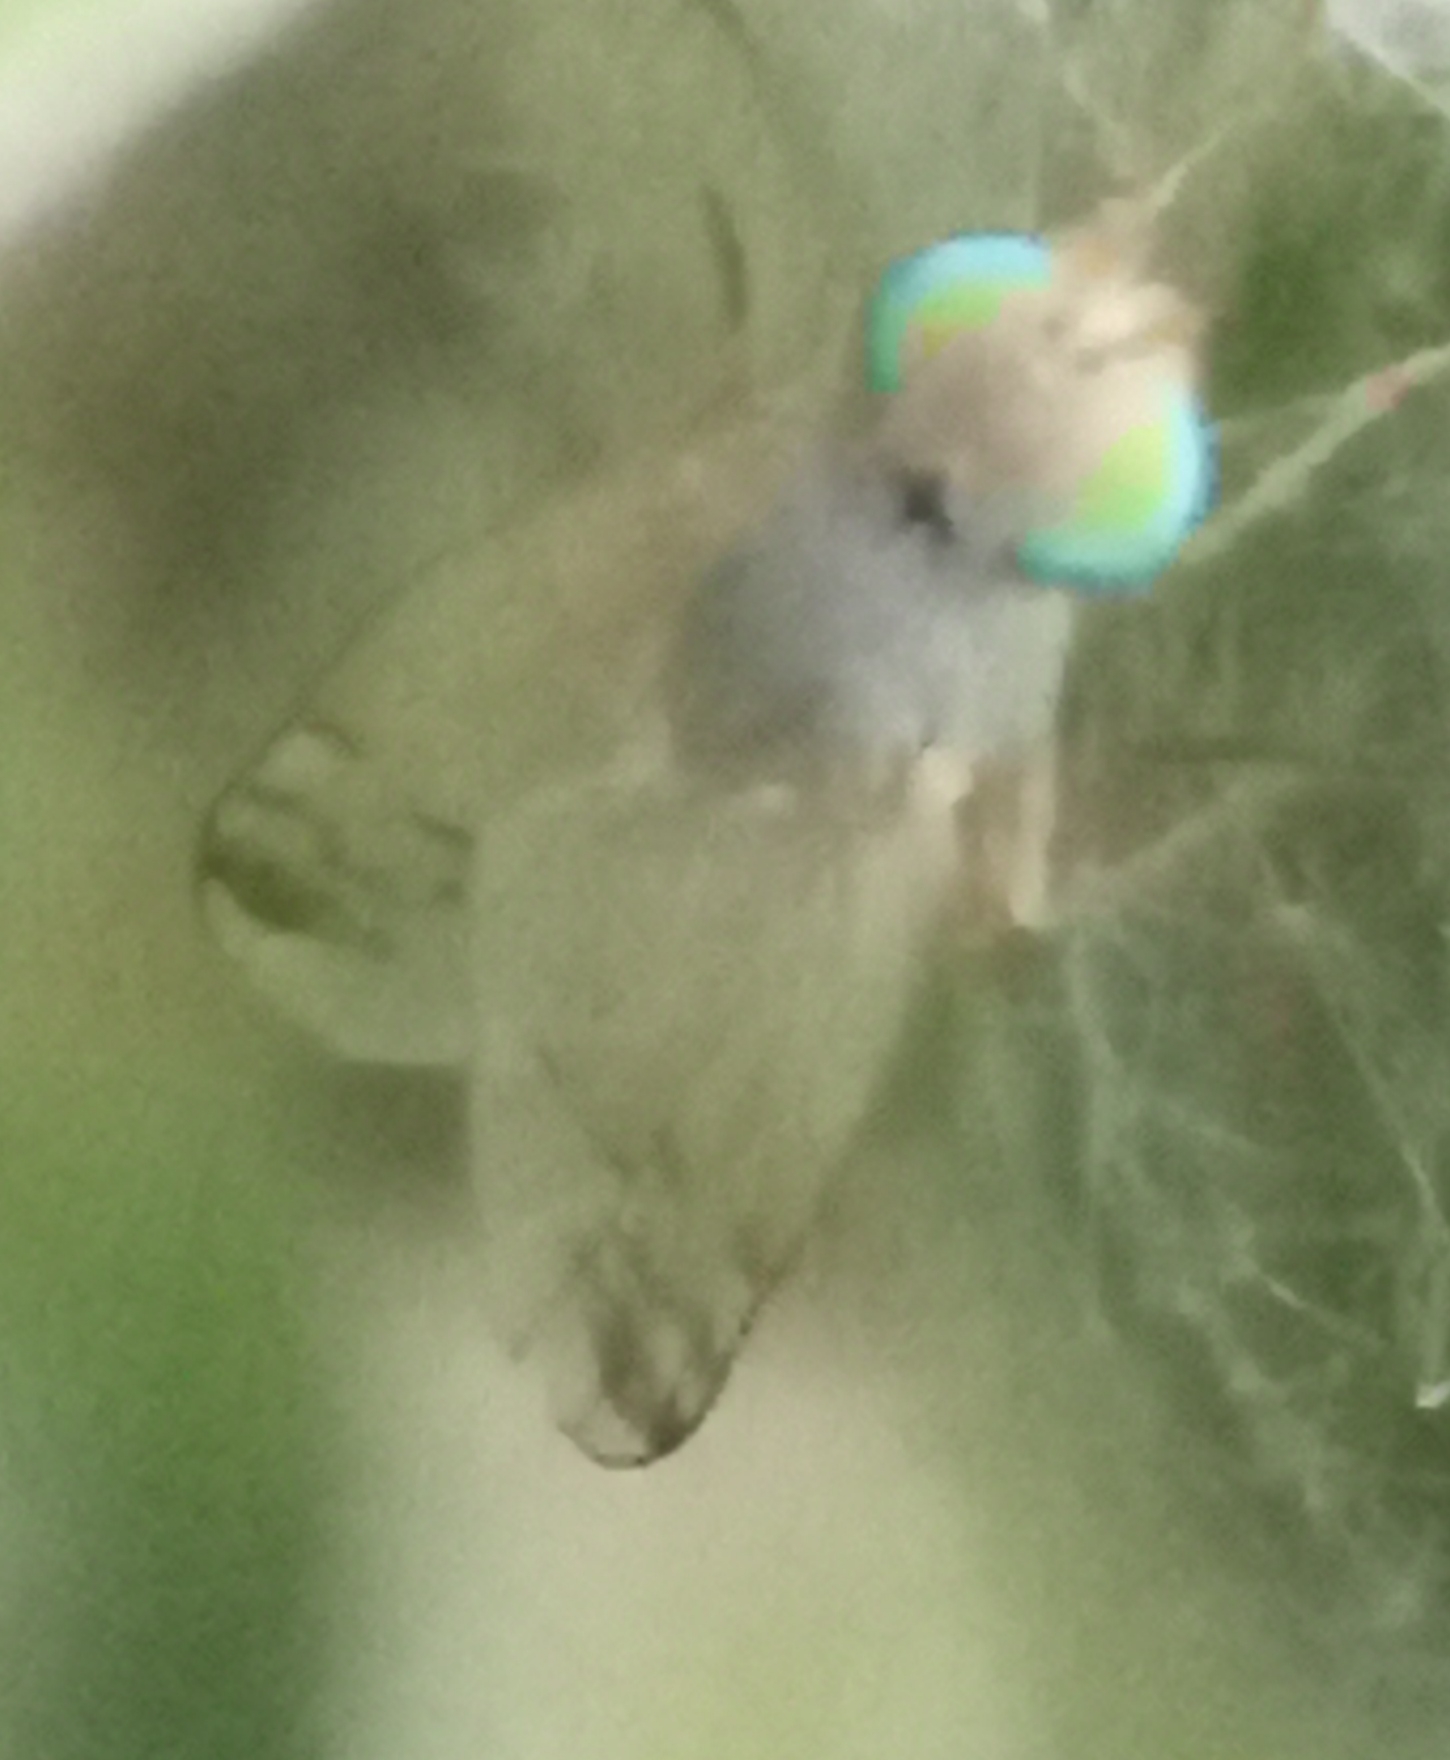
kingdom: Animalia
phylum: Arthropoda
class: Insecta
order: Diptera
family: Tephritidae
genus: Acanthiophilus
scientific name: Acanthiophilus helianthi
